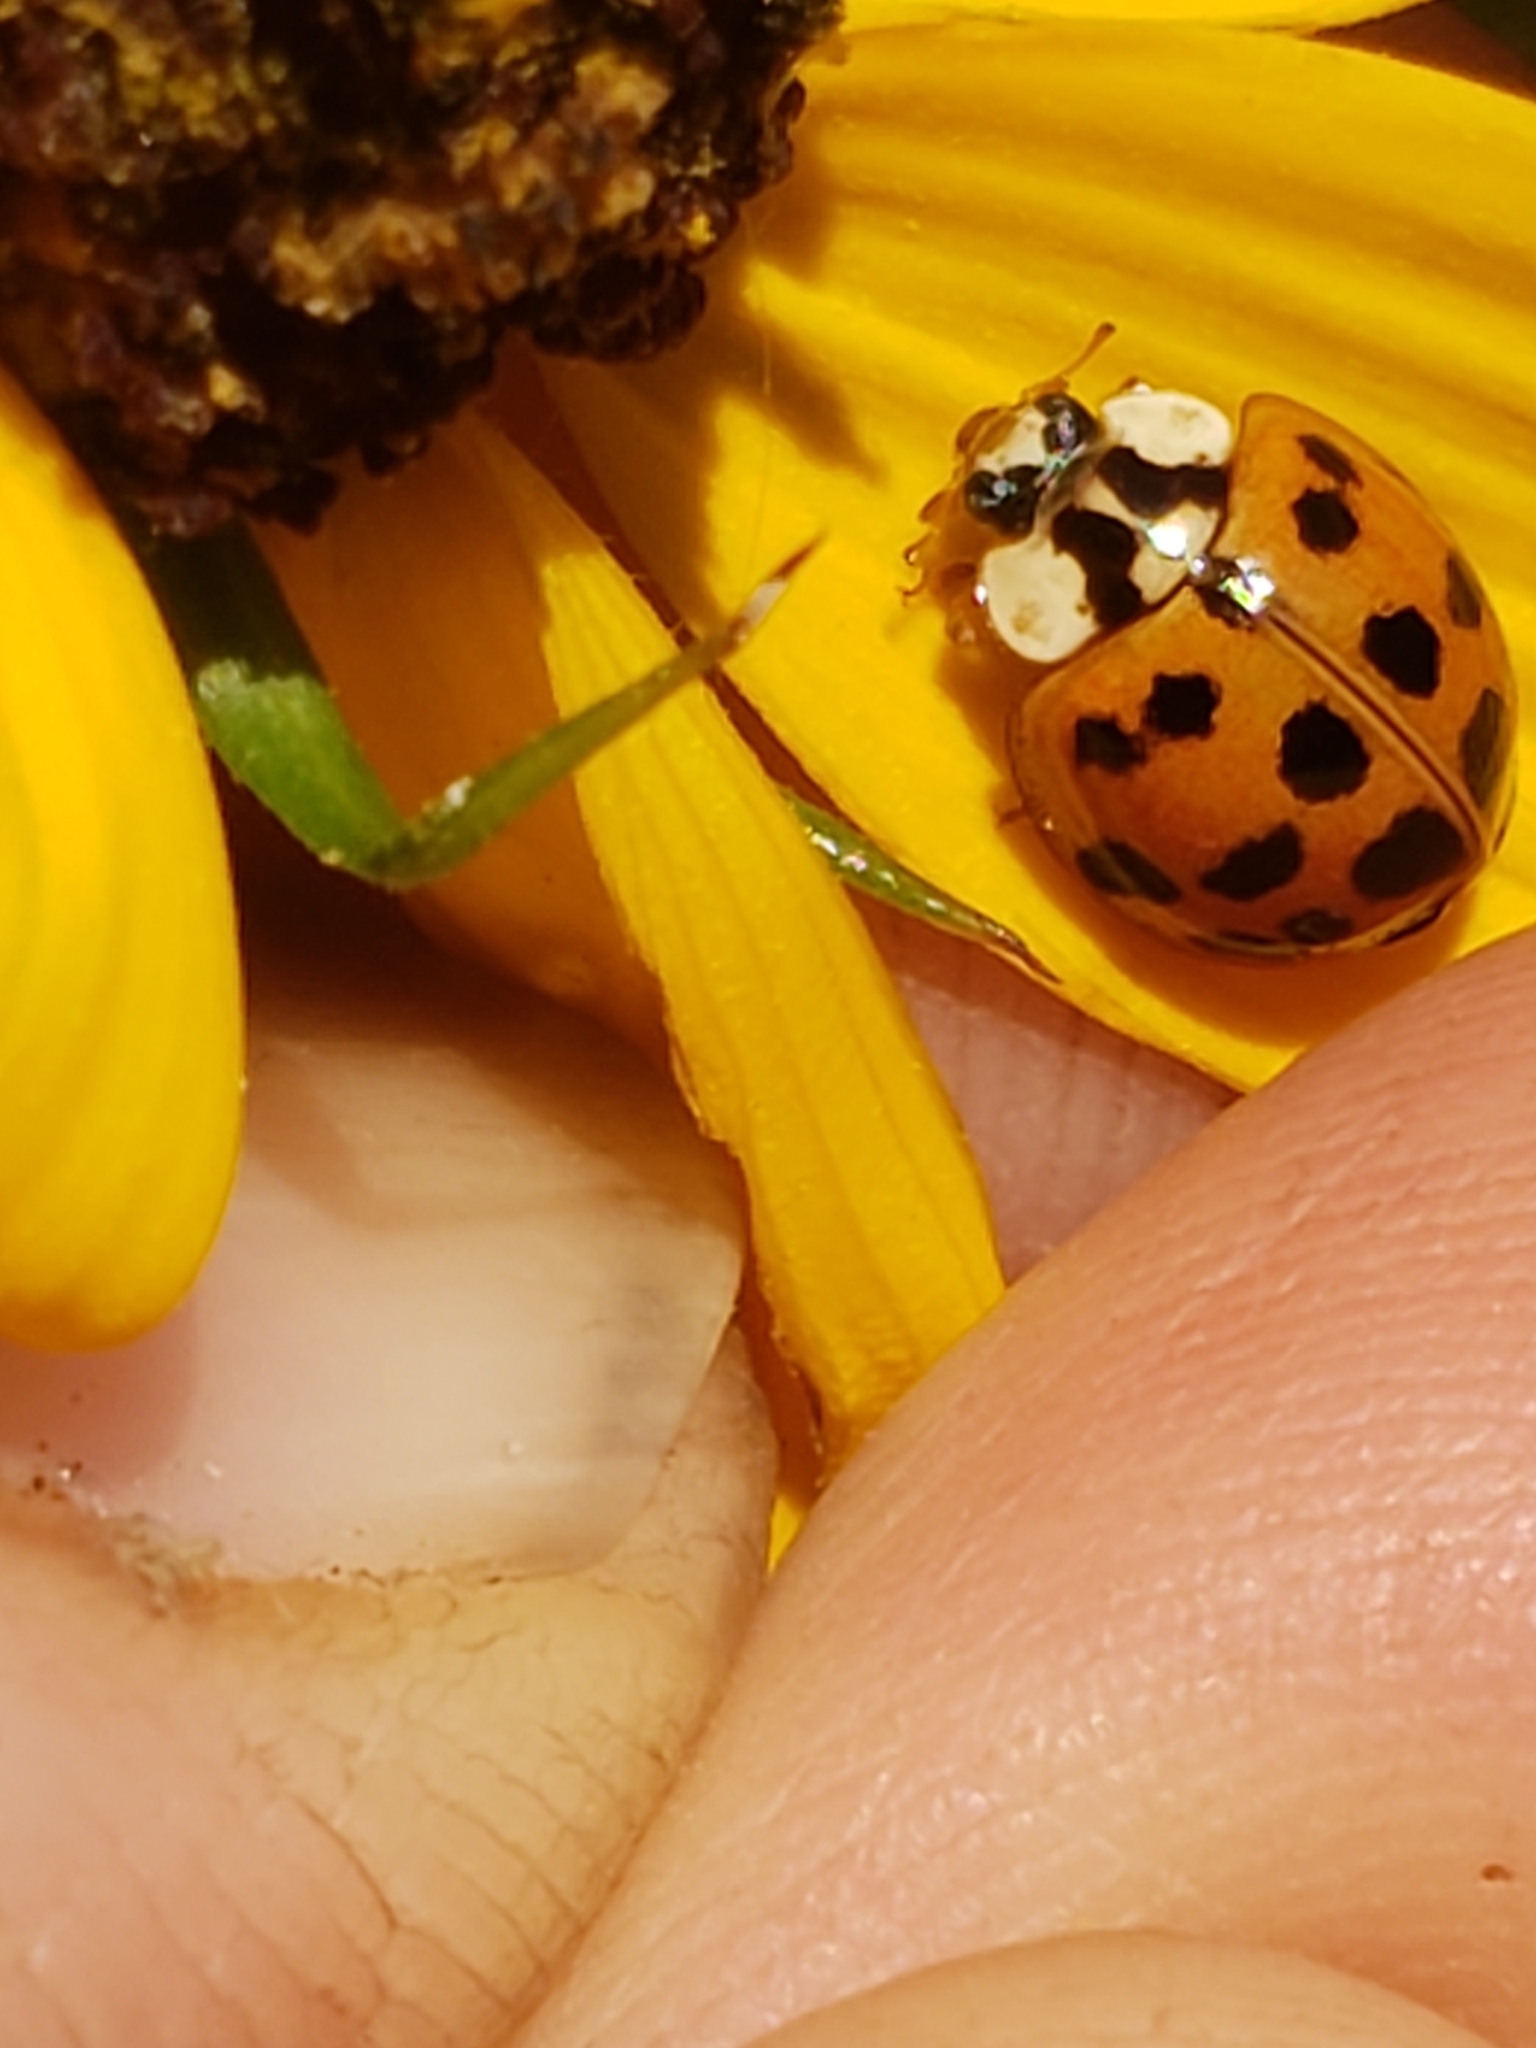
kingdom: Animalia
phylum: Arthropoda
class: Insecta
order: Coleoptera
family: Coccinellidae
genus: Harmonia
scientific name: Harmonia axyridis
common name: Harlequin ladybird
